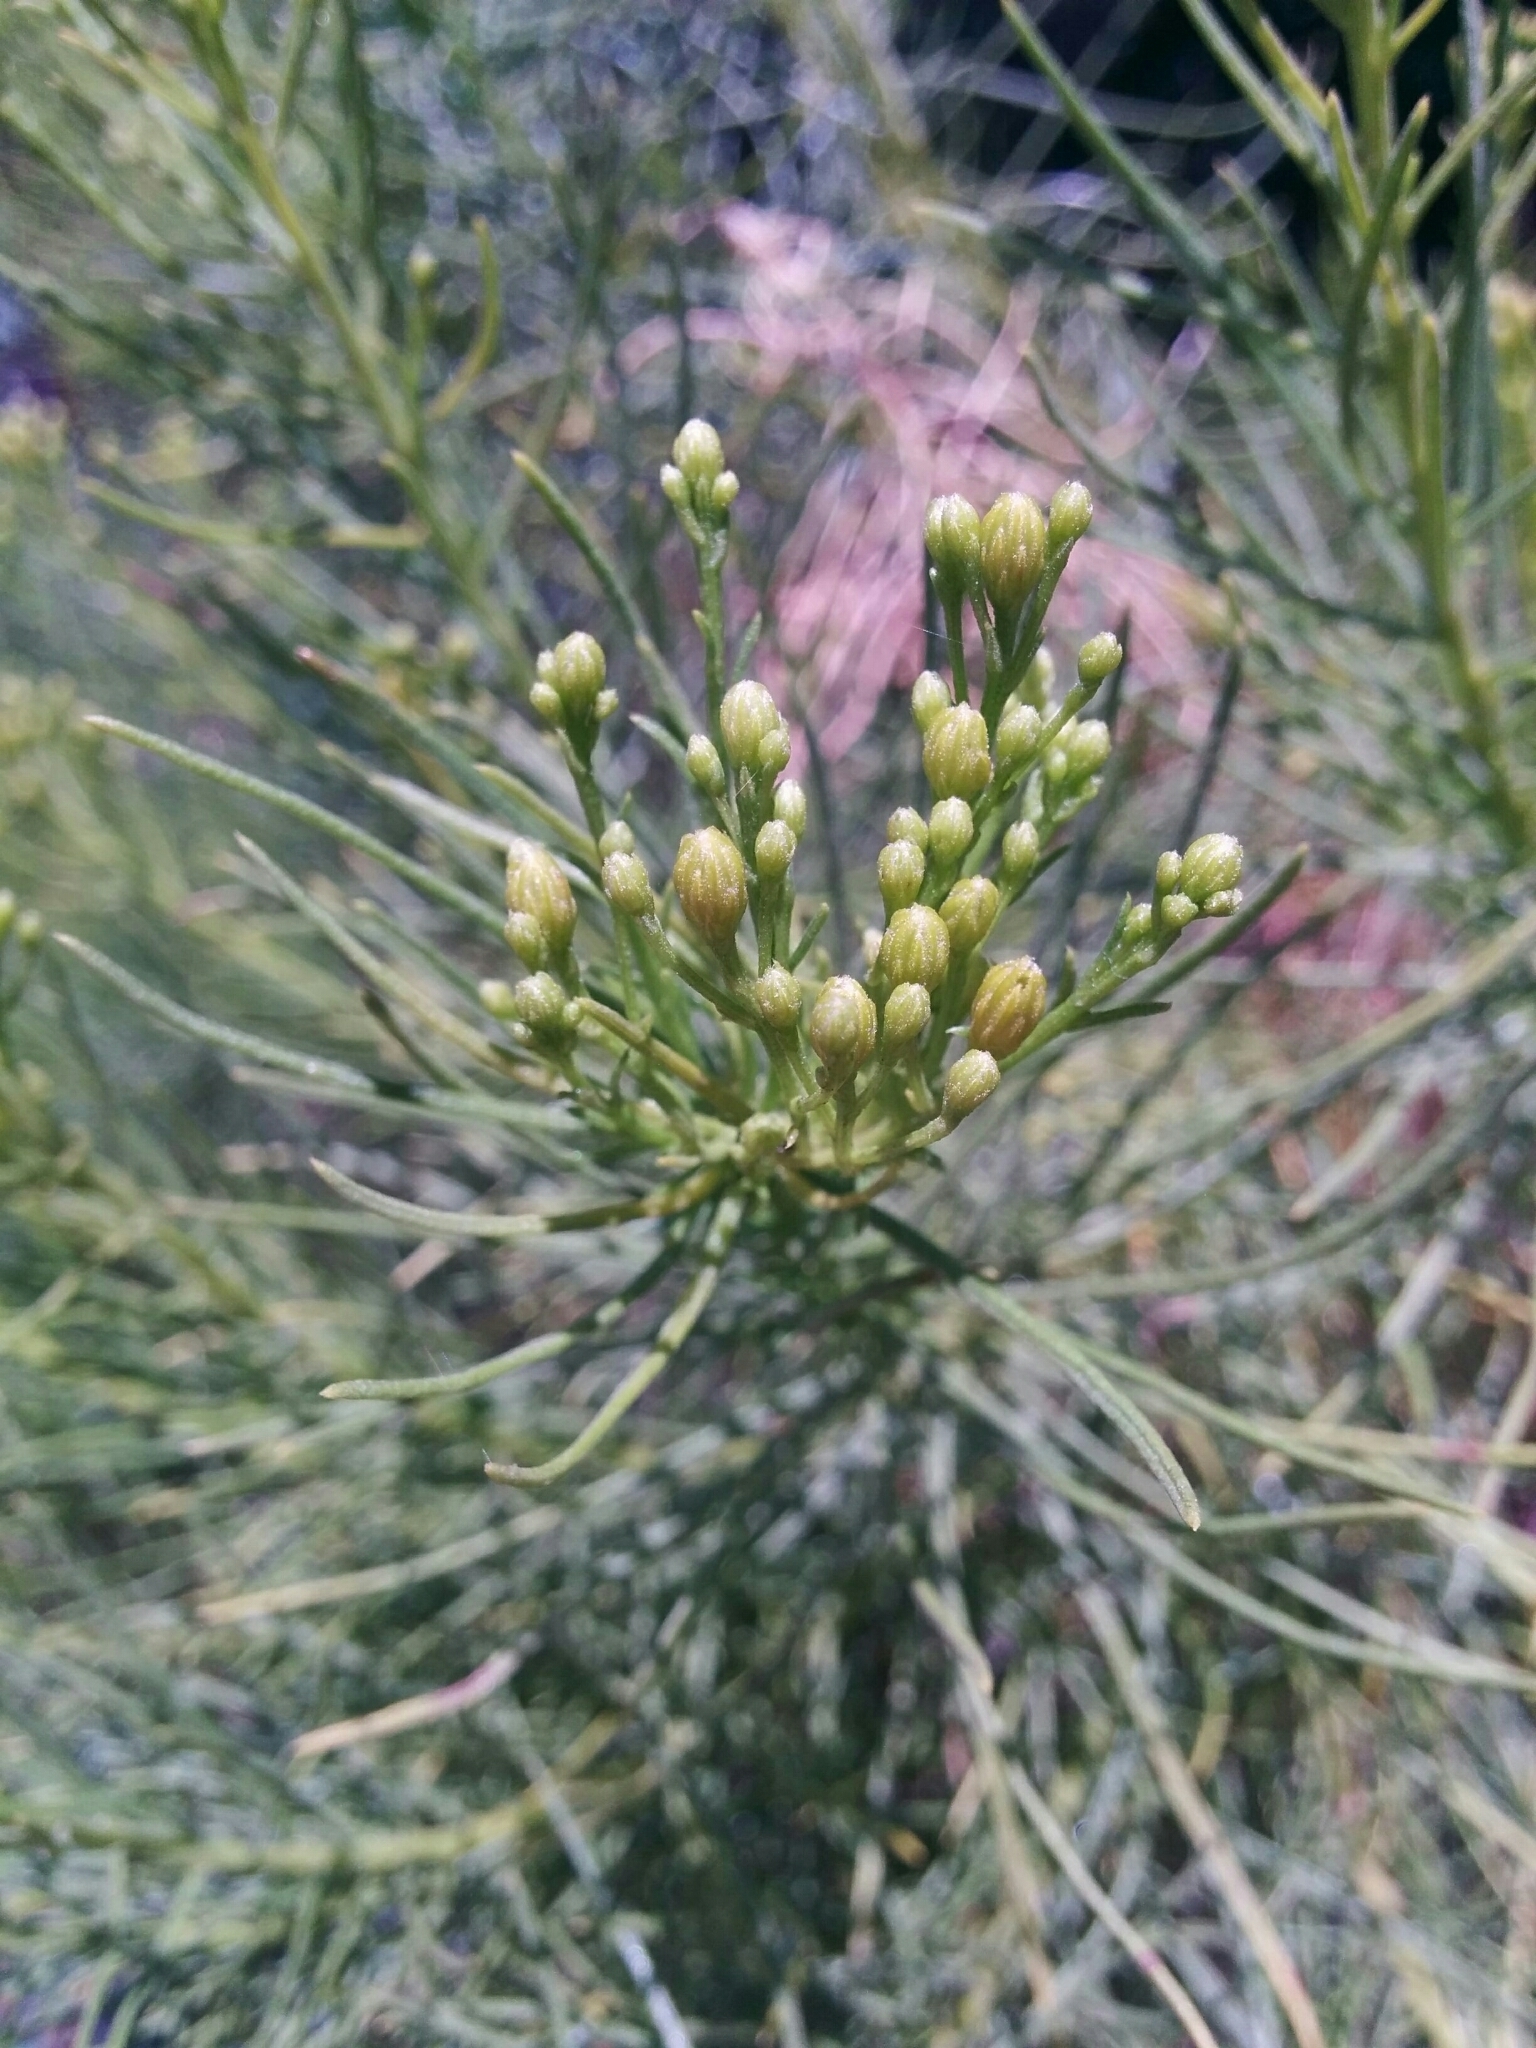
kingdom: Plantae
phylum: Tracheophyta
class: Magnoliopsida
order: Asterales
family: Asteraceae
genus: Ericameria
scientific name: Ericameria arborescens
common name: Goldenfleece
